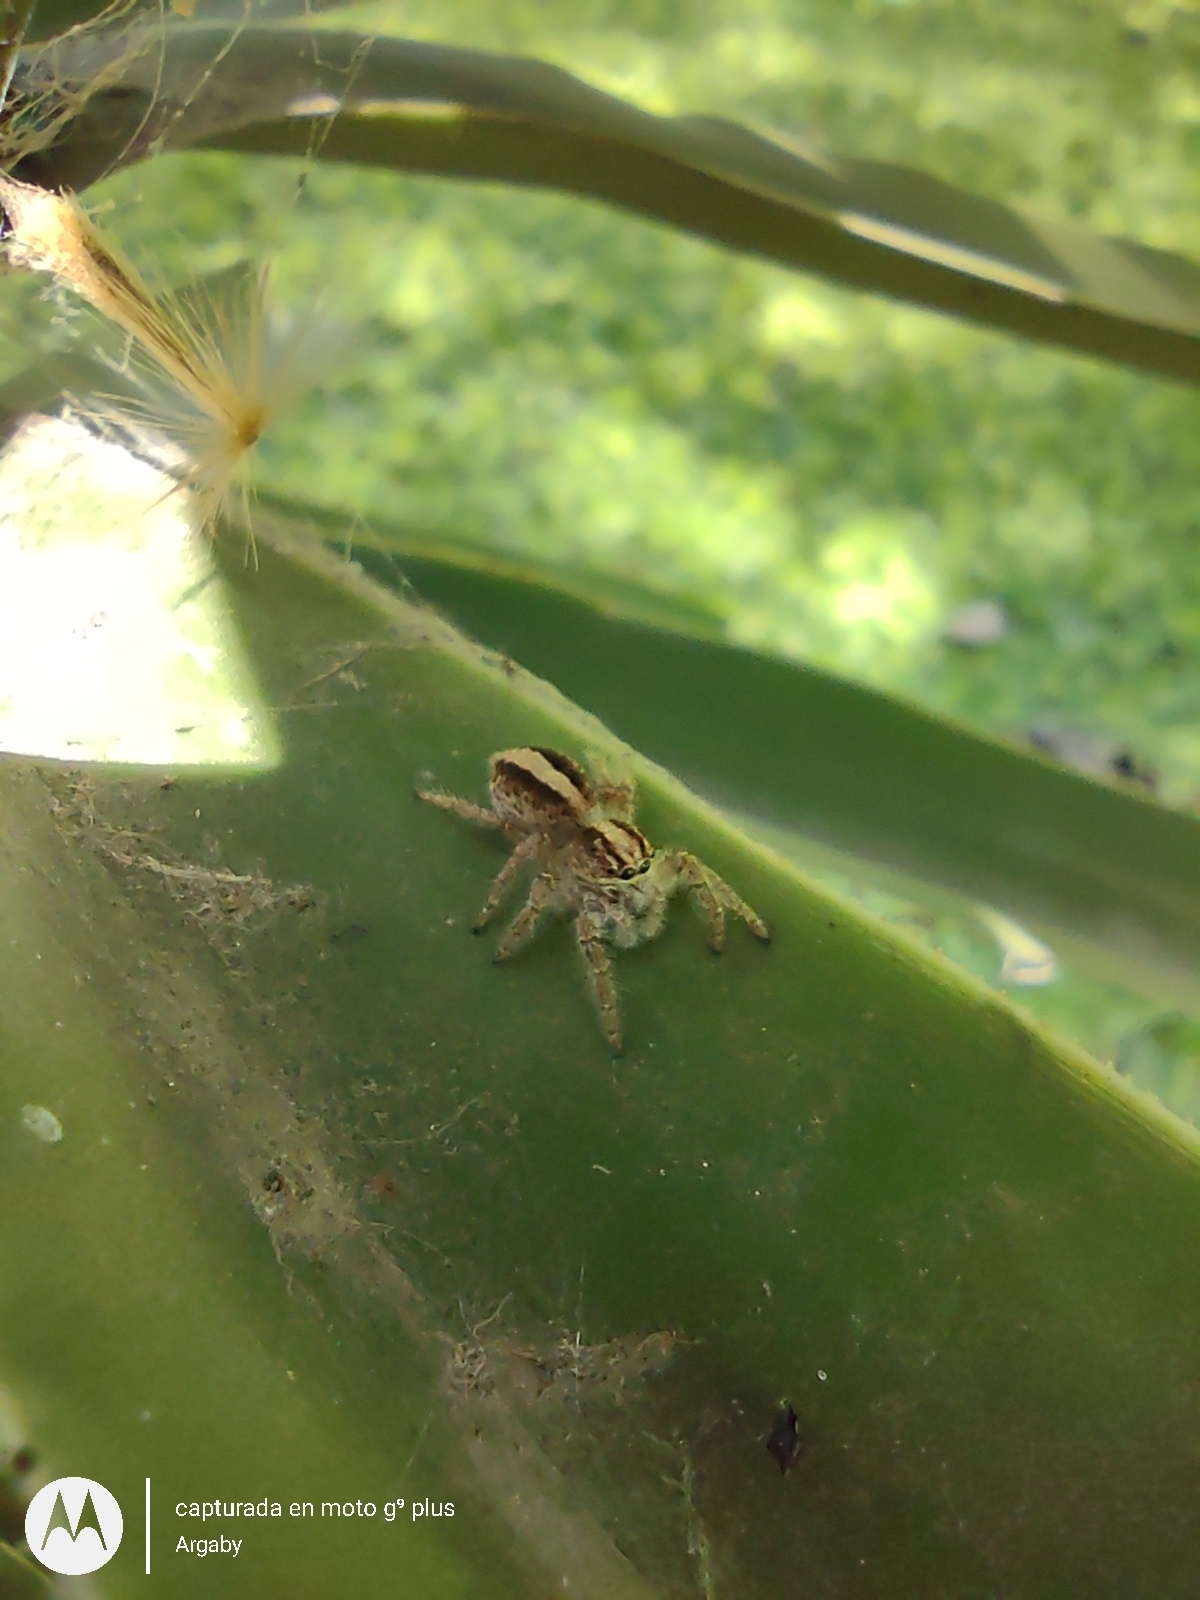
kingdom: Animalia
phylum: Arthropoda
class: Arachnida
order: Araneae
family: Salticidae
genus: Megafreya
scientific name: Megafreya sutrix
